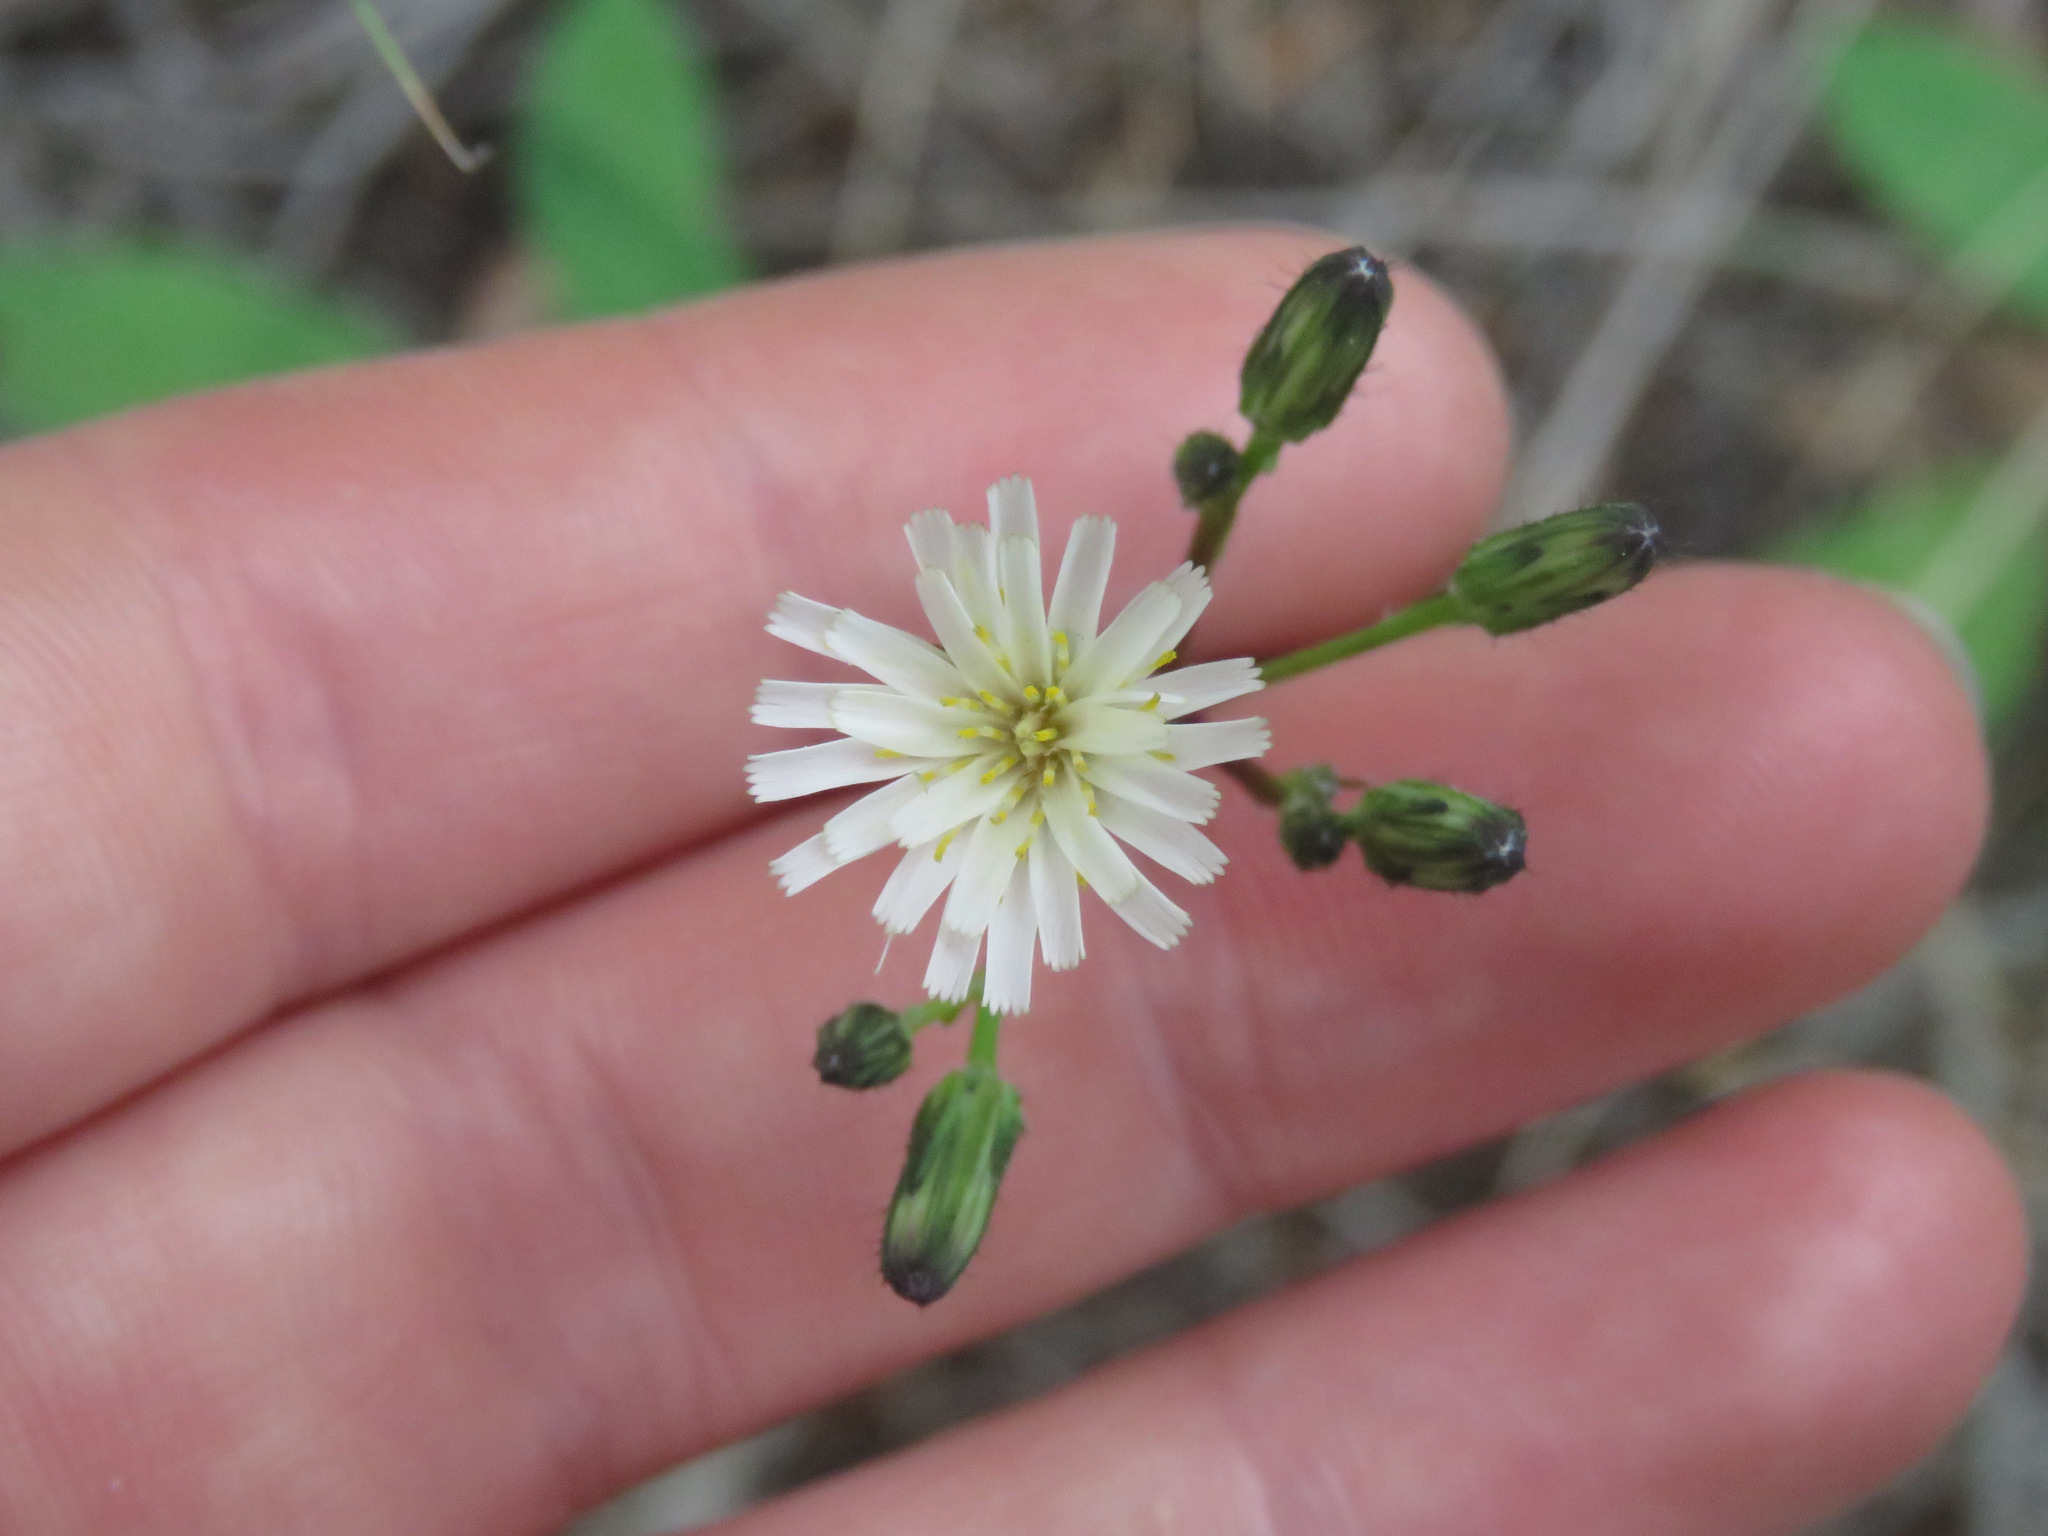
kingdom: Plantae
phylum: Tracheophyta
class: Magnoliopsida
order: Asterales
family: Asteraceae
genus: Hieracium
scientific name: Hieracium albiflorum
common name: White hawkweed
